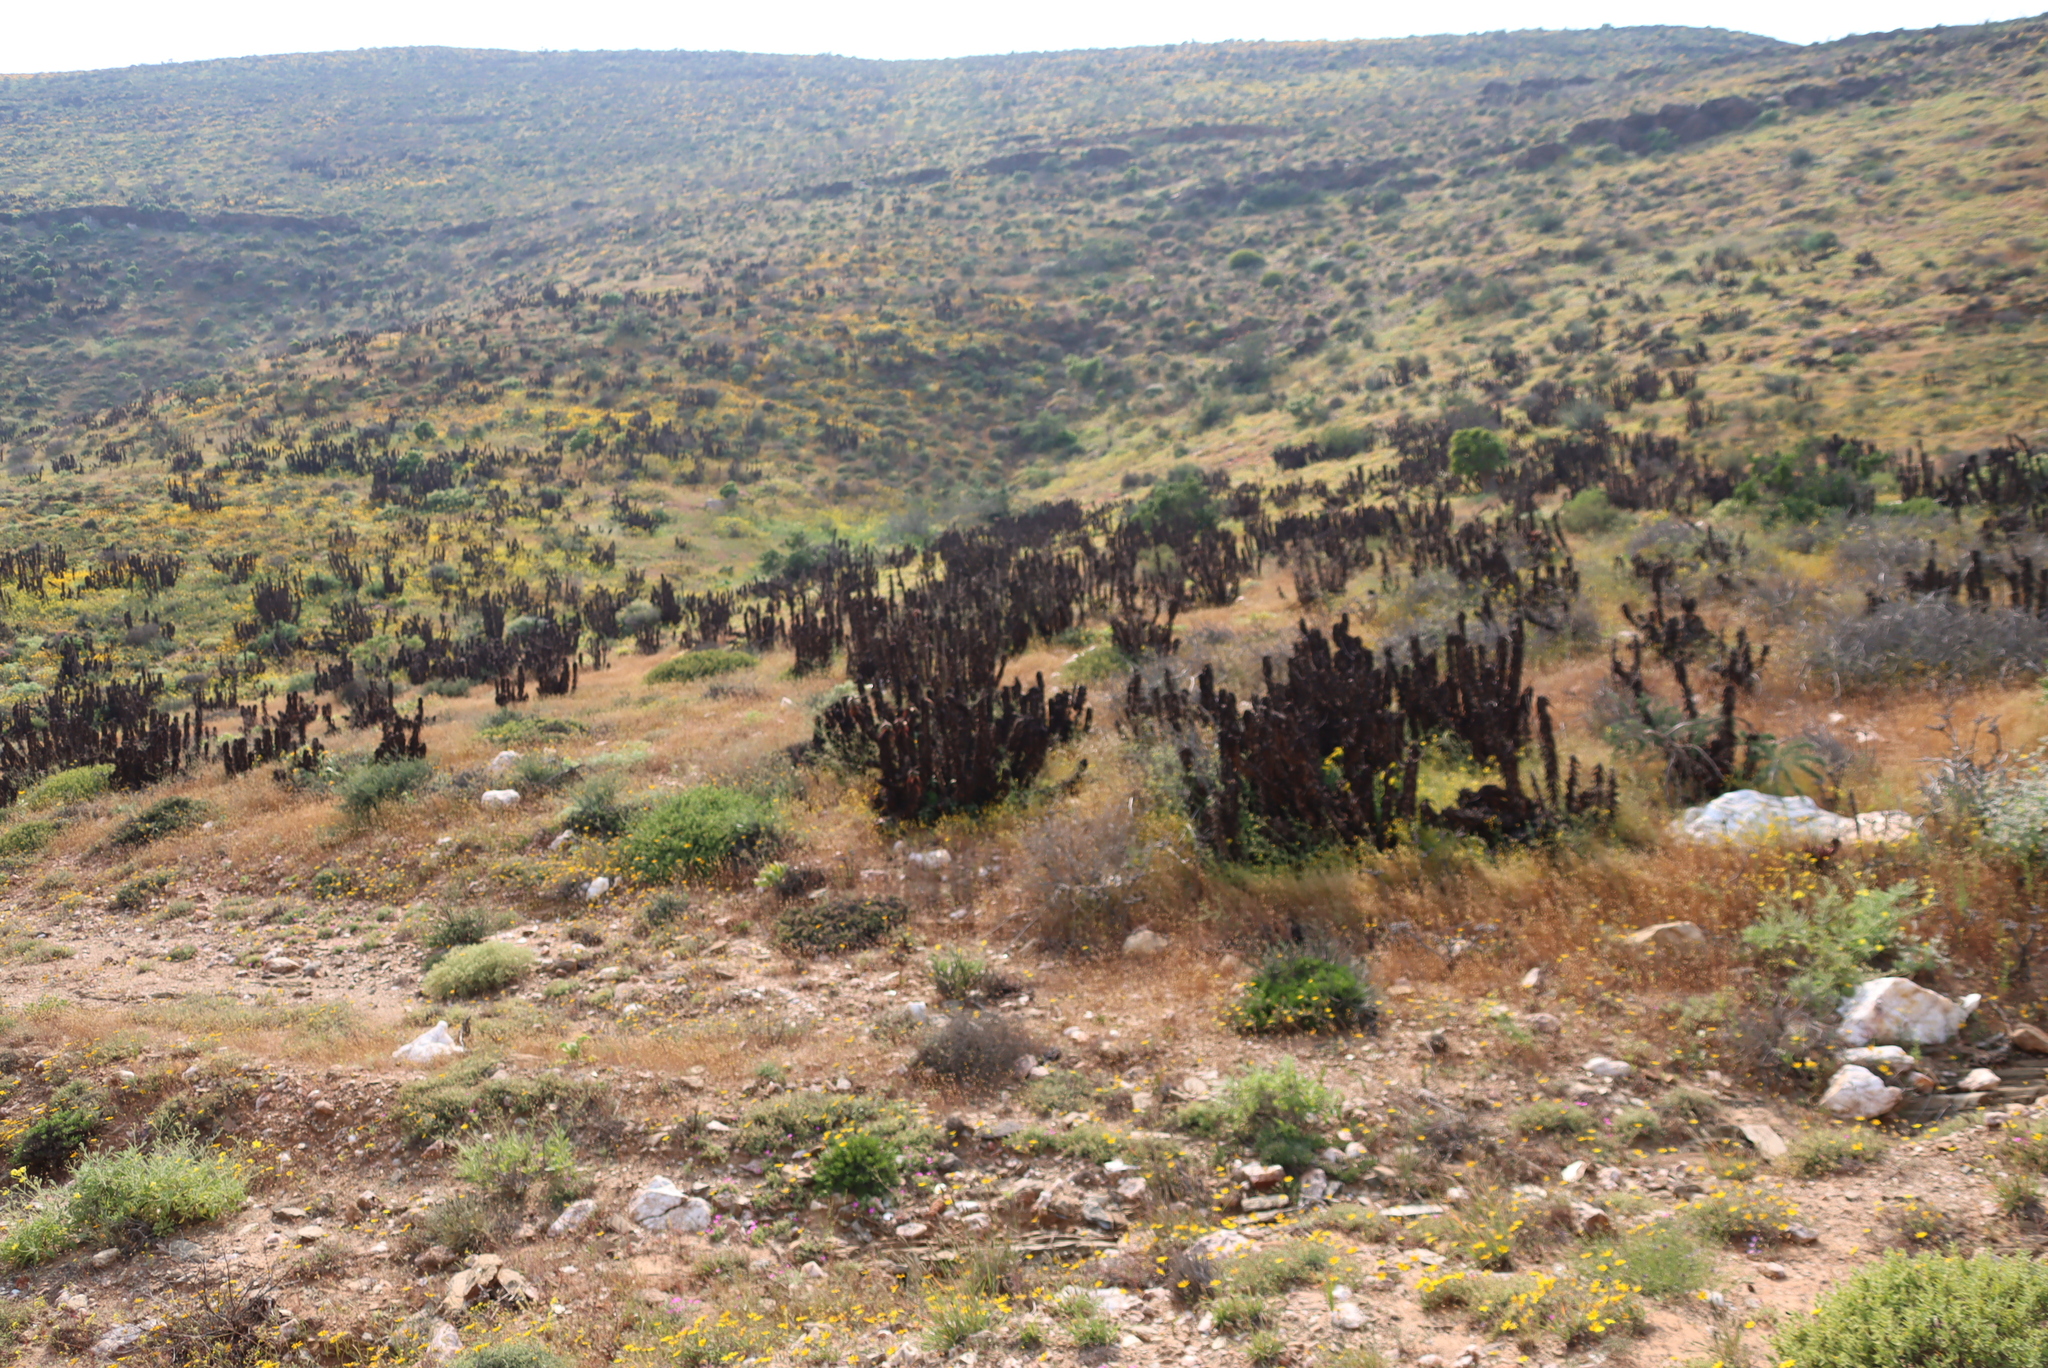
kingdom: Plantae
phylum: Tracheophyta
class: Liliopsida
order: Asparagales
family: Asphodelaceae
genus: Aloe
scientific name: Aloe pearsonii
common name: Pearson's aloe
